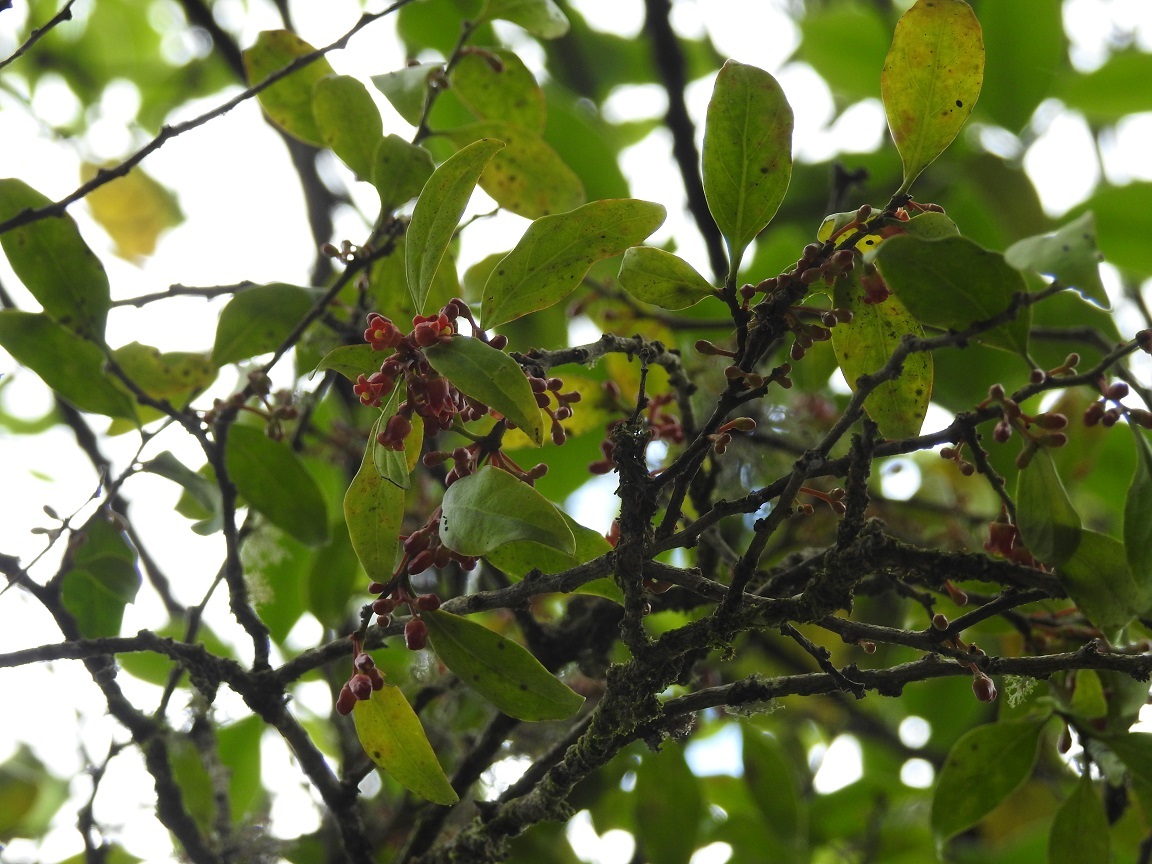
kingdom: Plantae
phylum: Tracheophyta
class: Magnoliopsida
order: Santalales
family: Schoepfiaceae
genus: Schoepfia
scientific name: Schoepfia vacciniiflora
